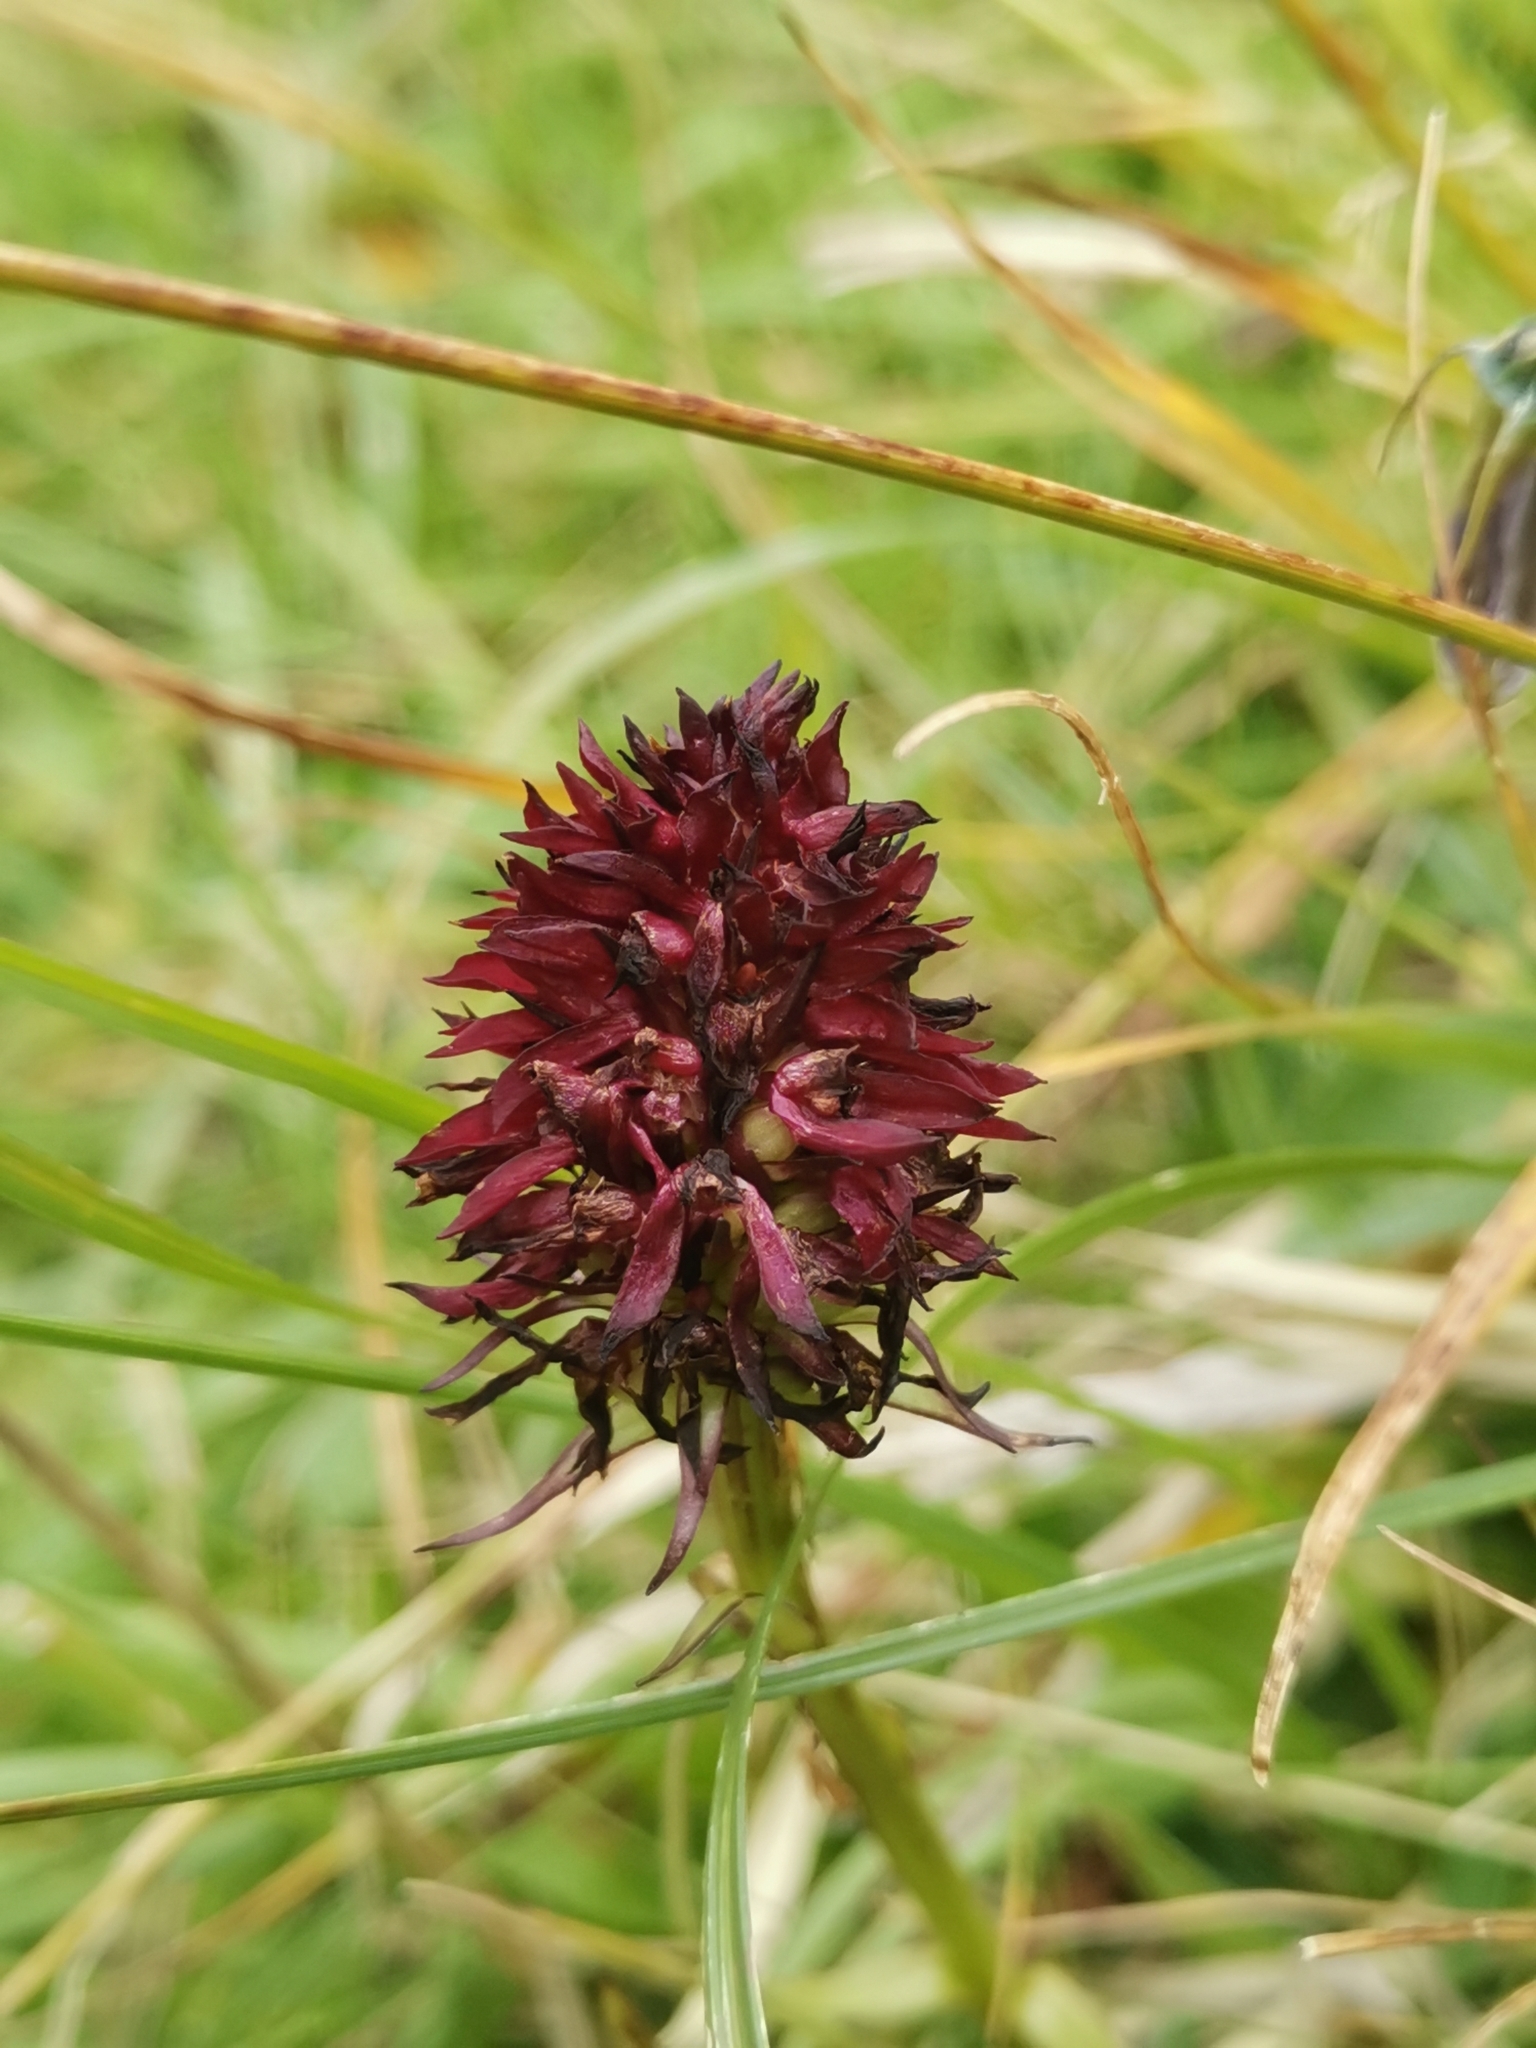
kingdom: Plantae
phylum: Tracheophyta
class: Liliopsida
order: Asparagales
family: Orchidaceae
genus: Gymnadenia
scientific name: Gymnadenia rhellicani
